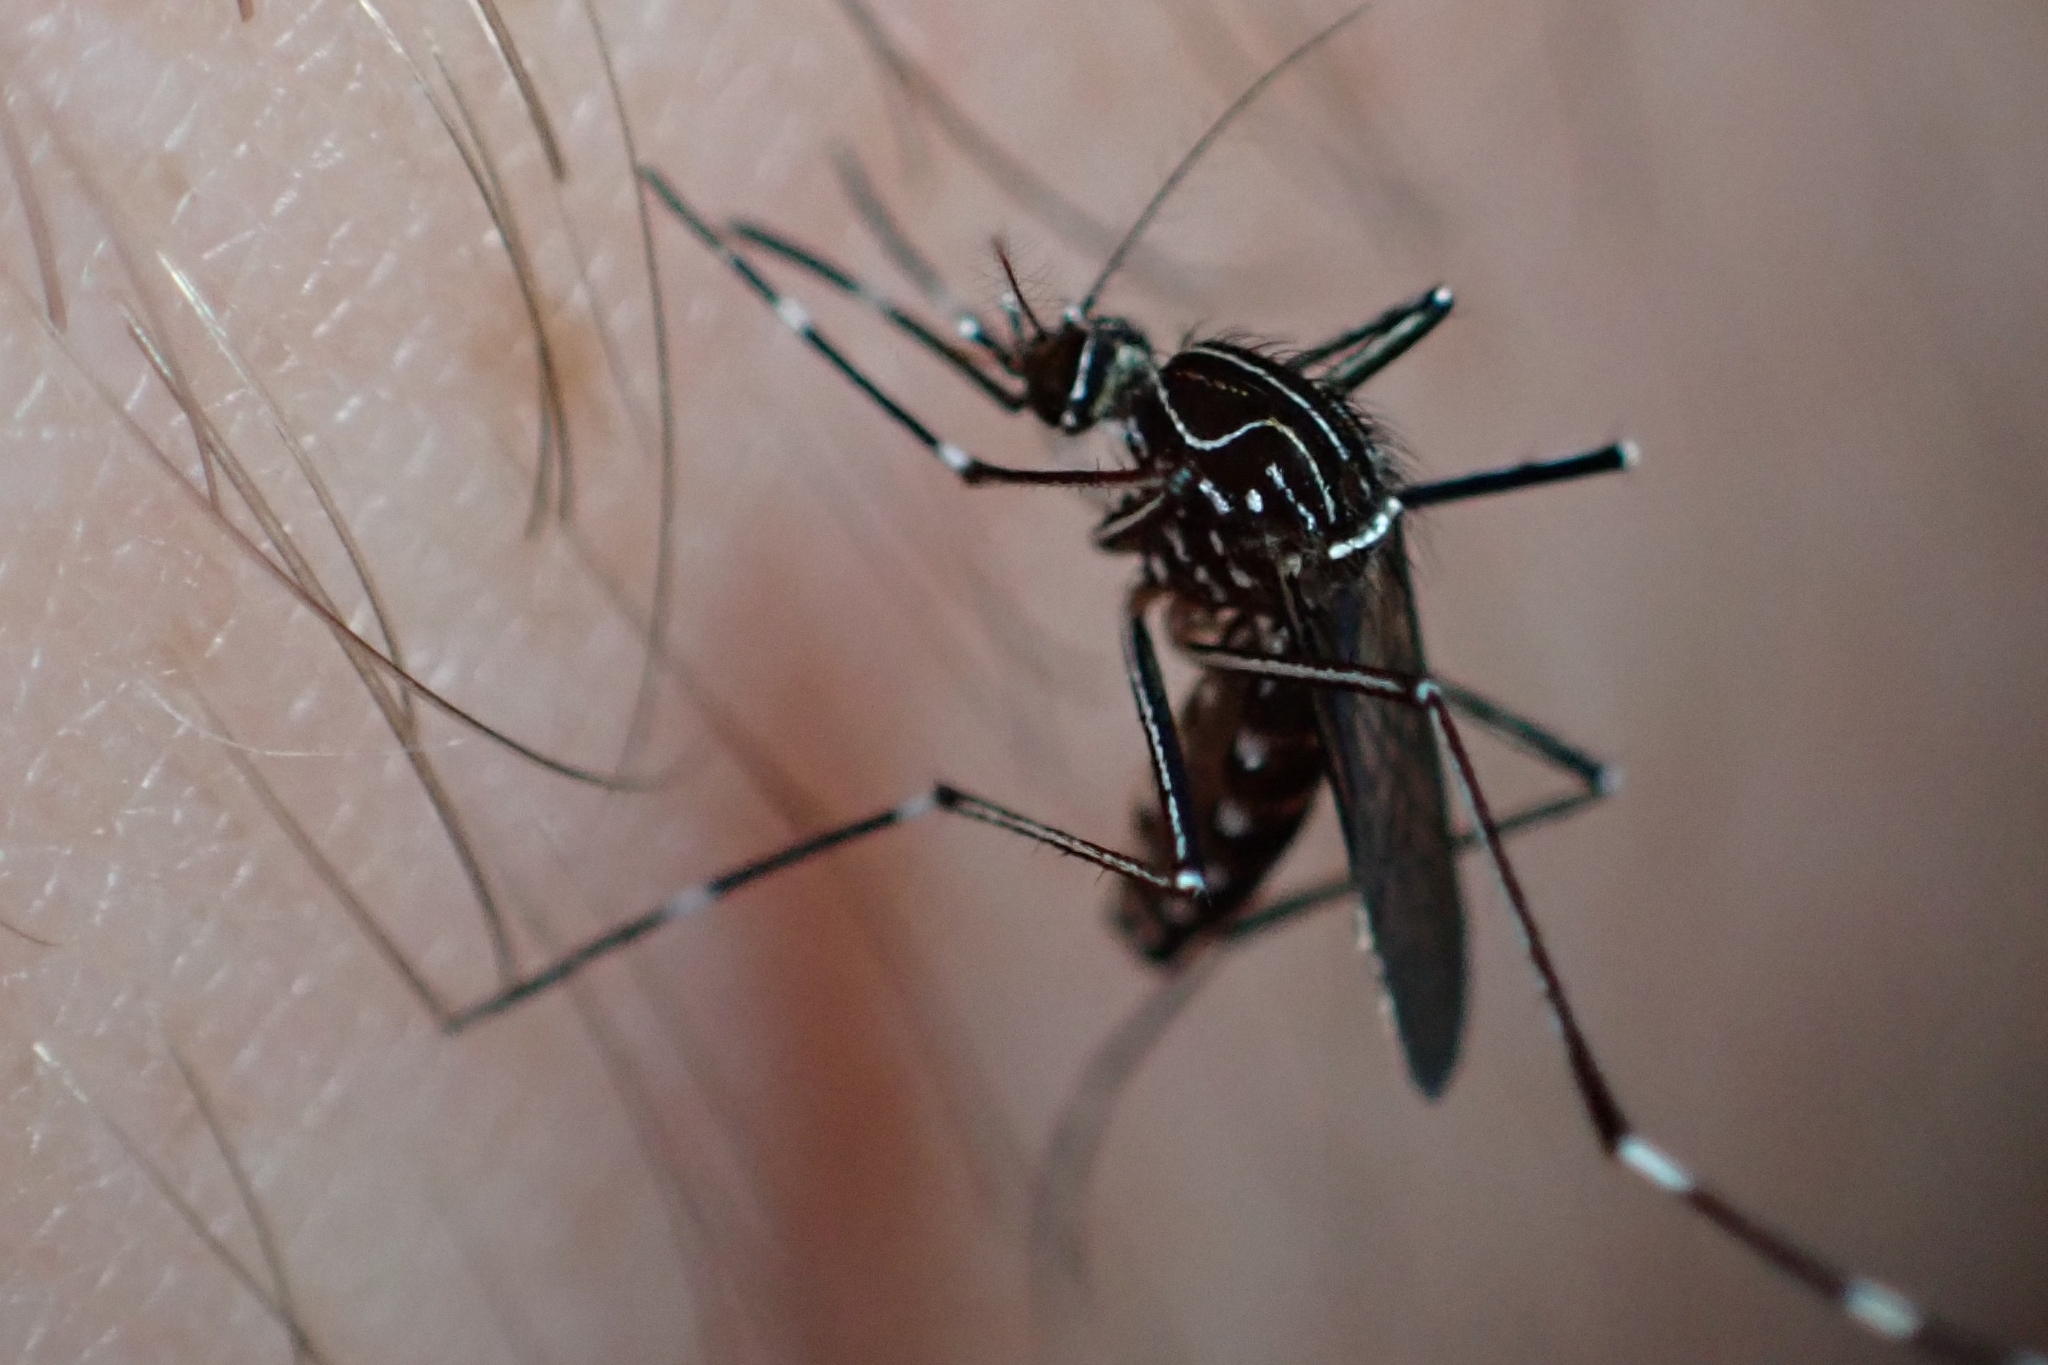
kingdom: Animalia
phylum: Arthropoda
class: Insecta
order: Diptera
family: Culicidae
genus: Aedes
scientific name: Aedes notoscriptus
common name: Australian backyard mosquito
